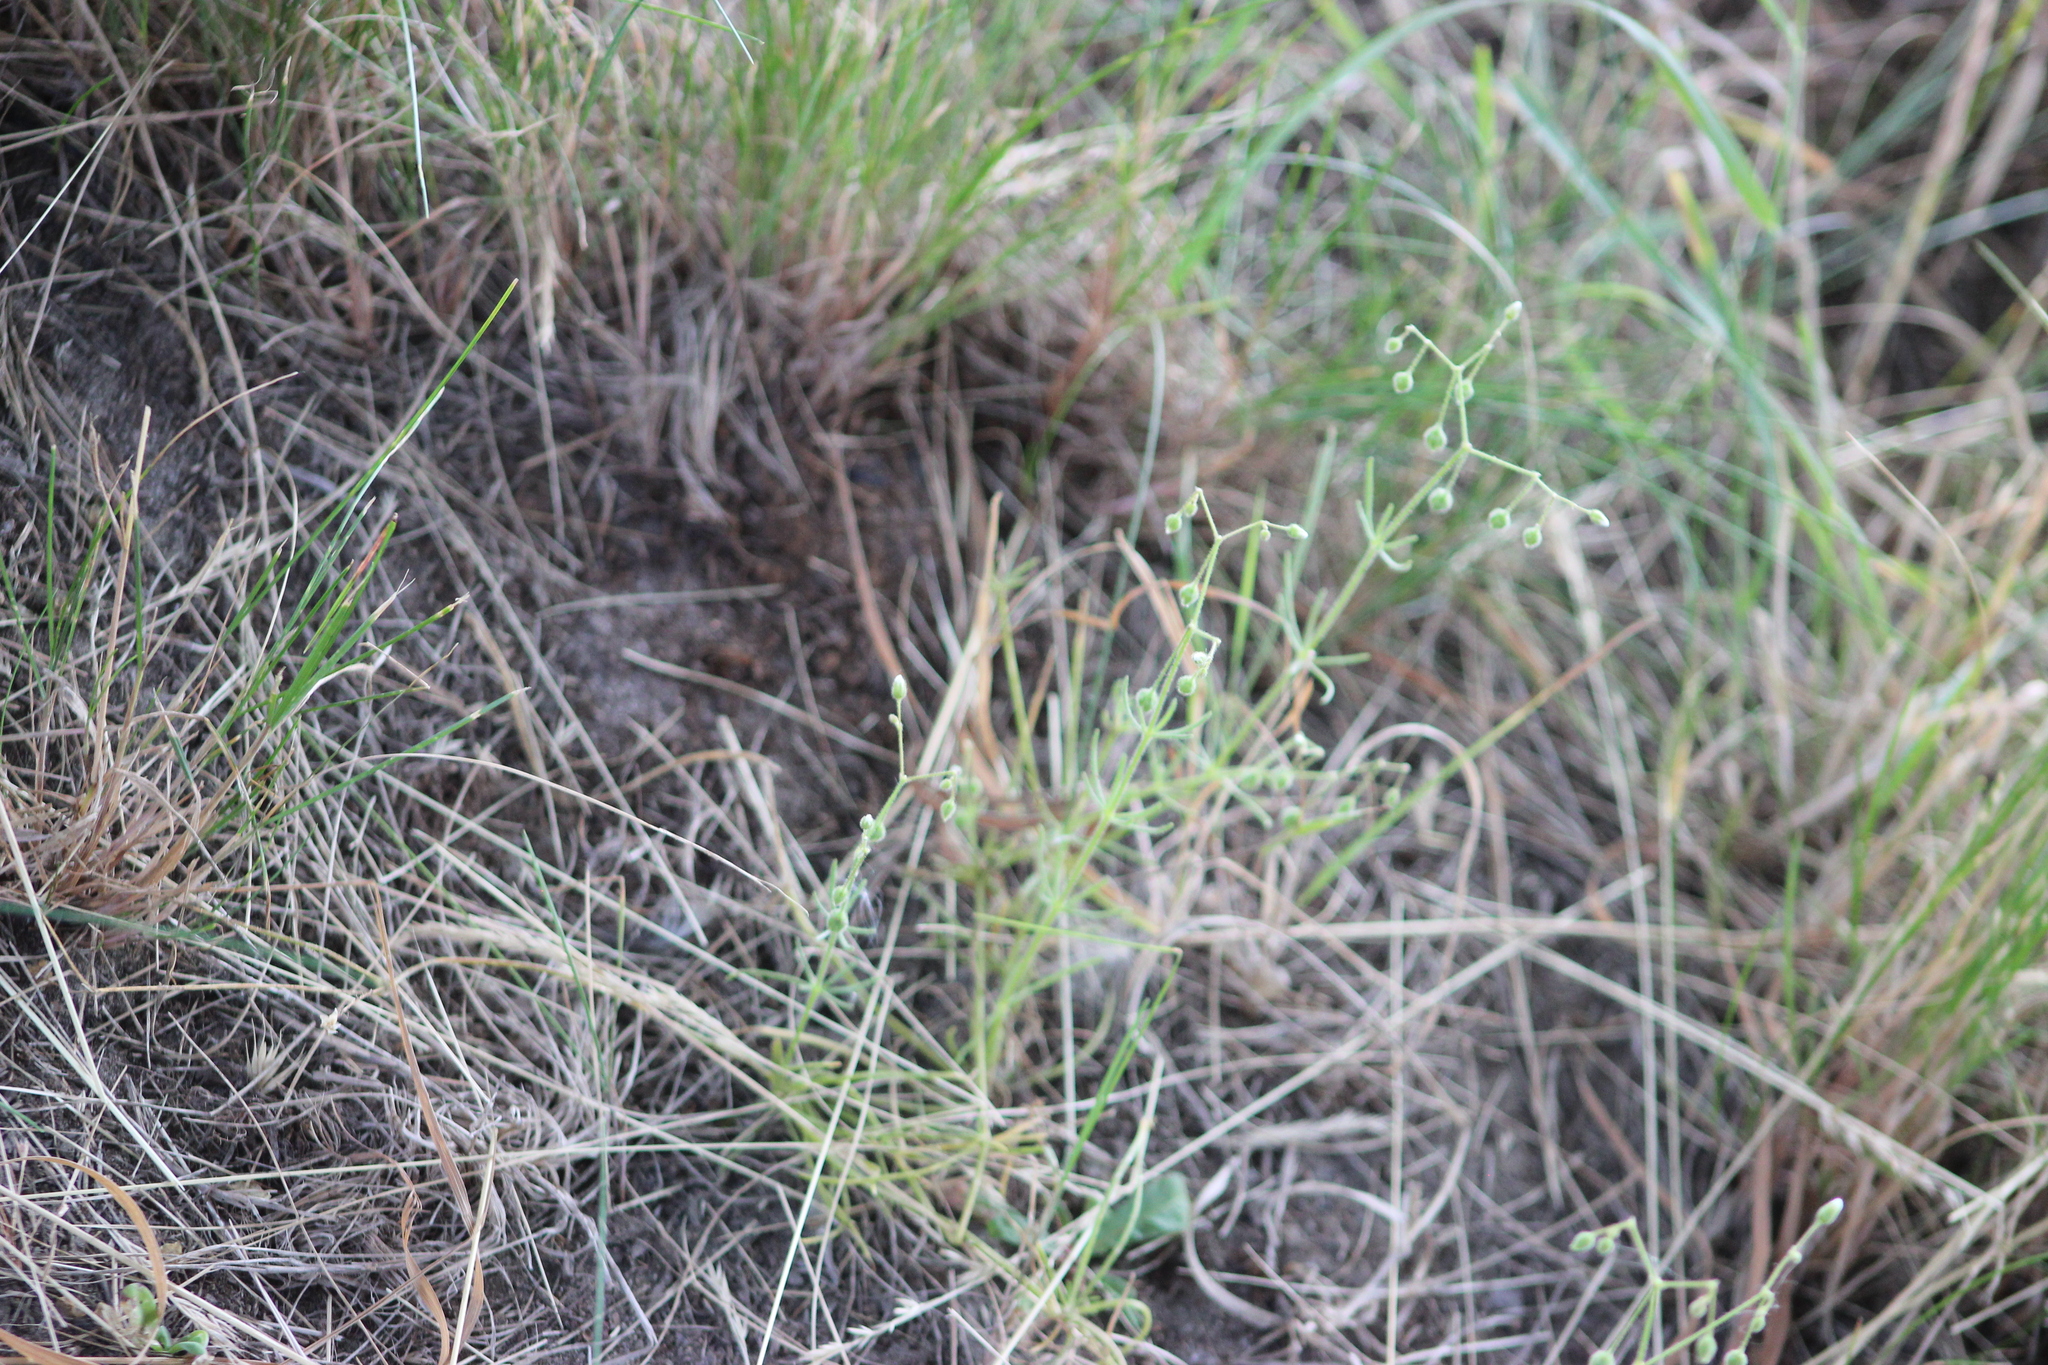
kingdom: Plantae
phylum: Tracheophyta
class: Magnoliopsida
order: Caryophyllales
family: Caryophyllaceae
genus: Spergula
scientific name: Spergula arvensis
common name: Corn spurrey
